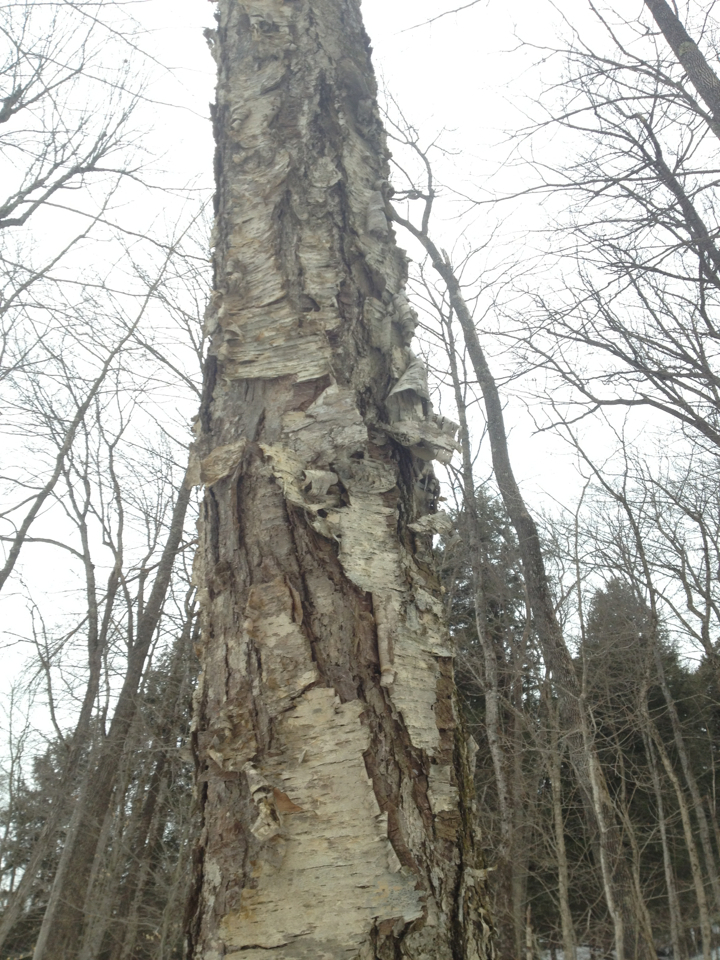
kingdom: Plantae
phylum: Tracheophyta
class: Magnoliopsida
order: Fagales
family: Betulaceae
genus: Betula
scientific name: Betula alleghaniensis
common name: Yellow birch
